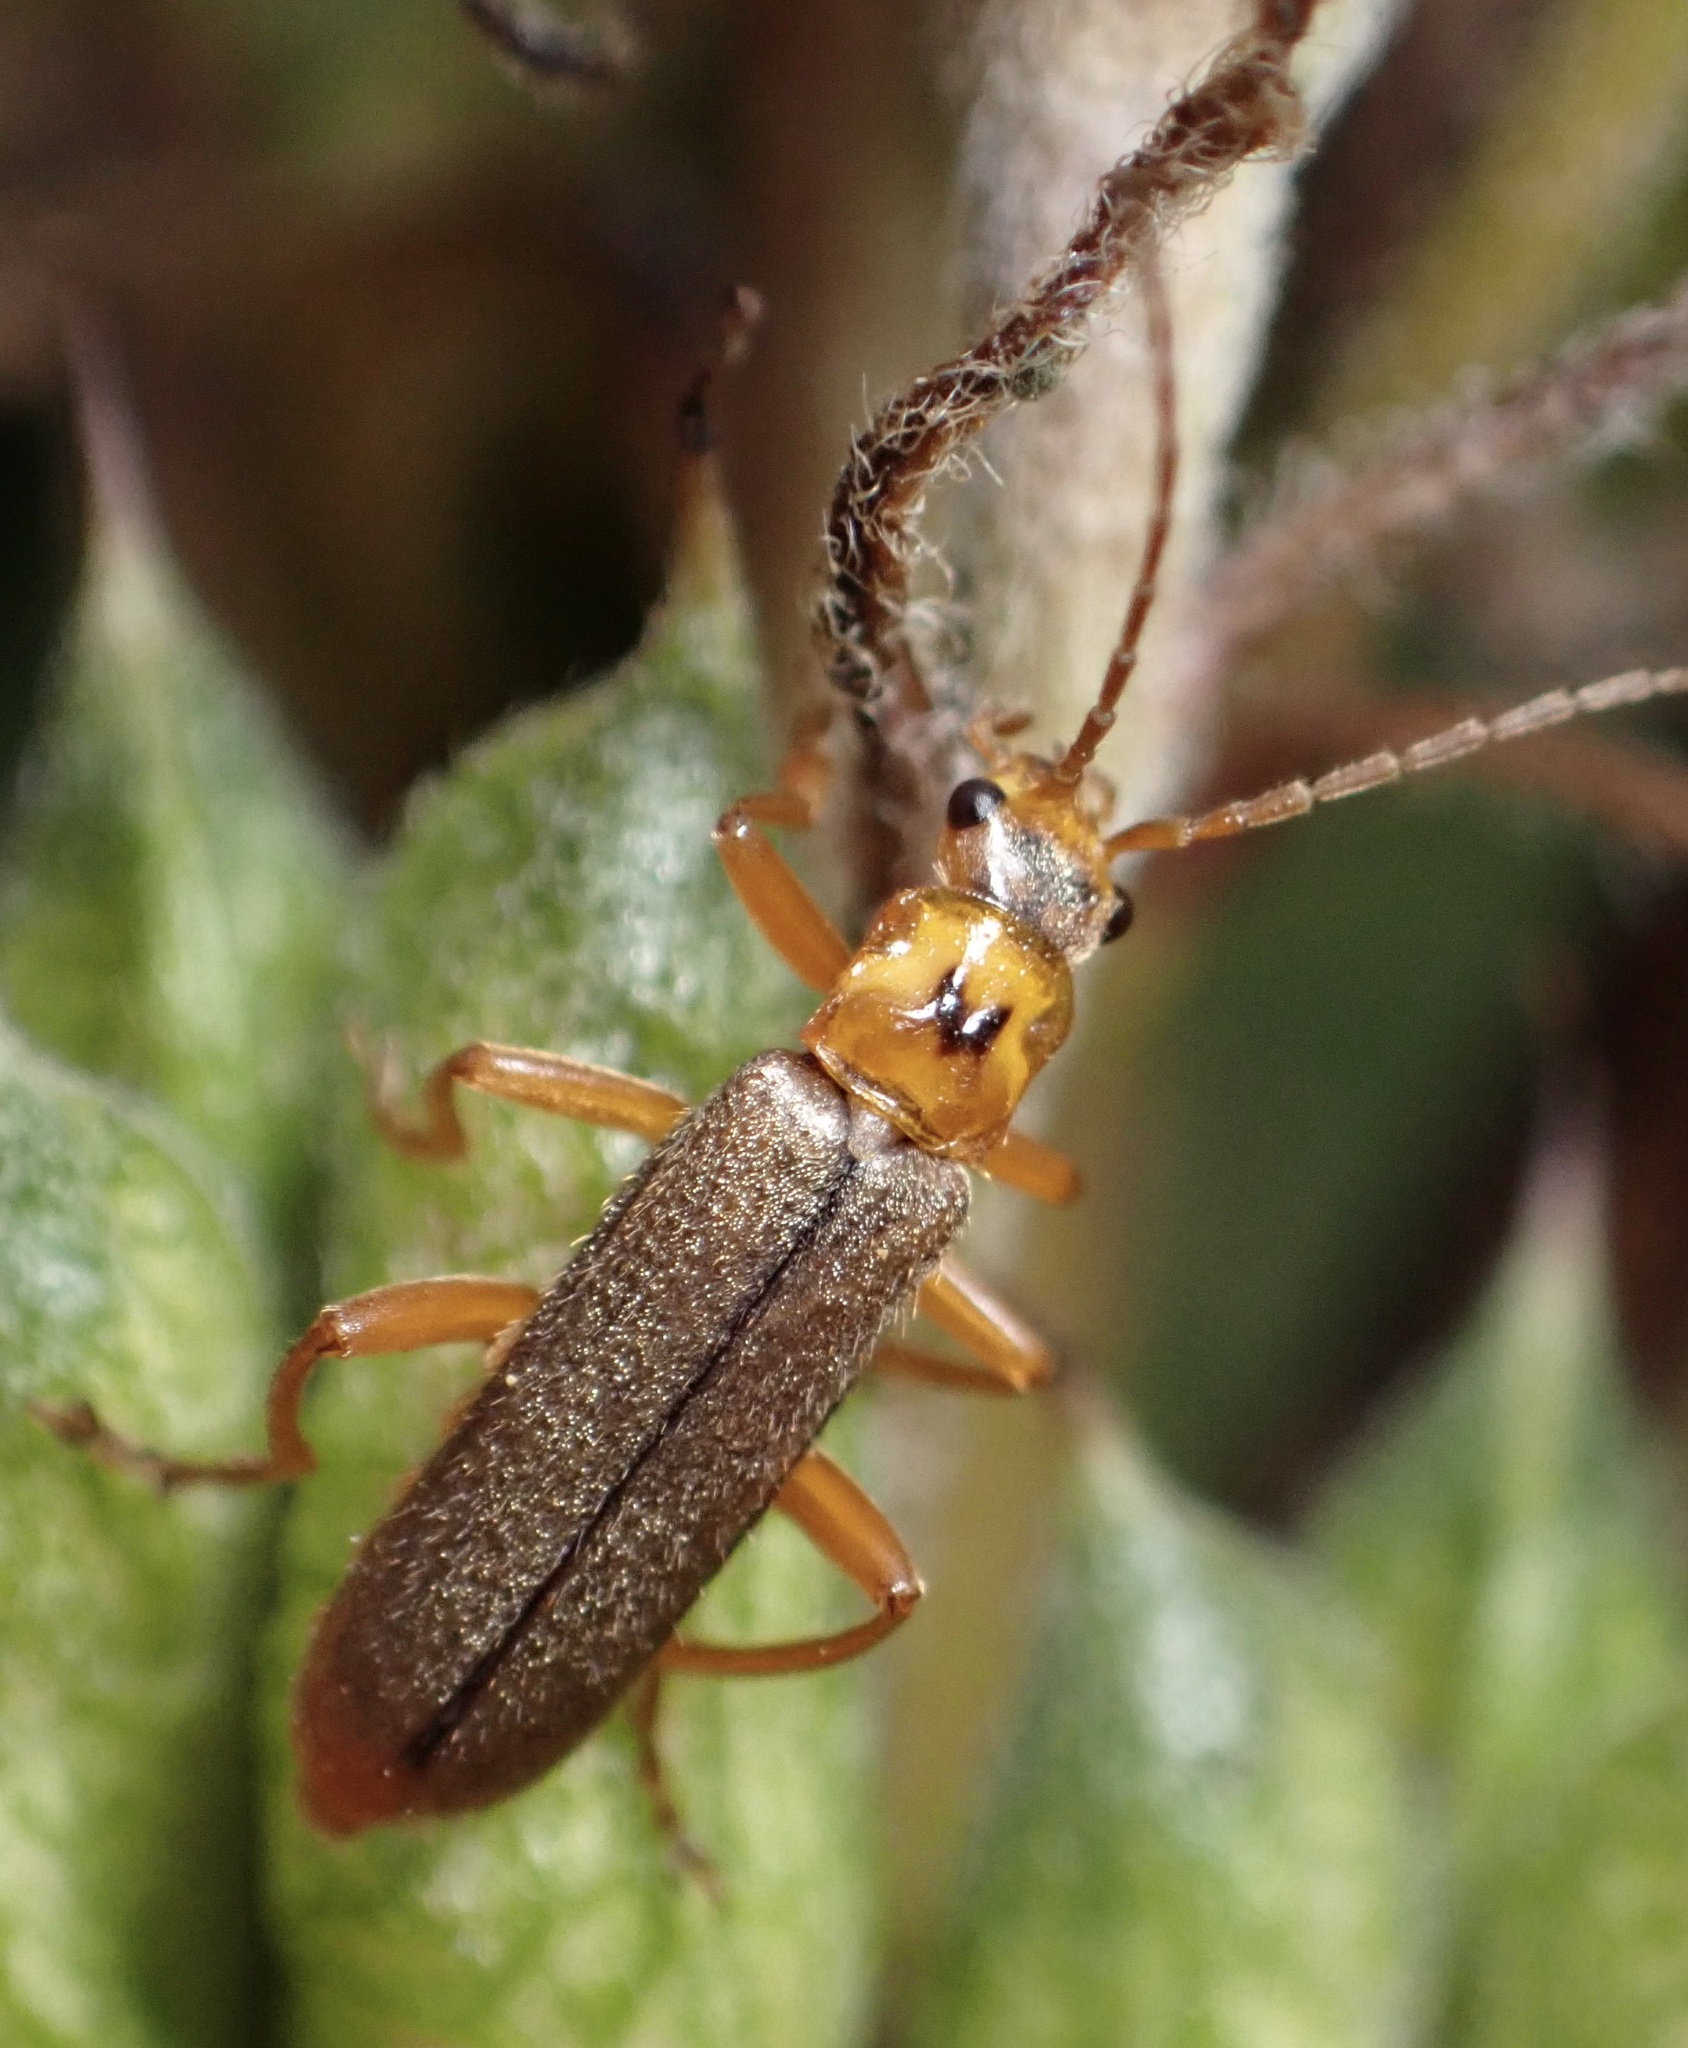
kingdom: Animalia
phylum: Arthropoda
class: Insecta
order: Coleoptera
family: Cantharidae
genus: Cultellunguis
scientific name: Cultellunguis americanus
